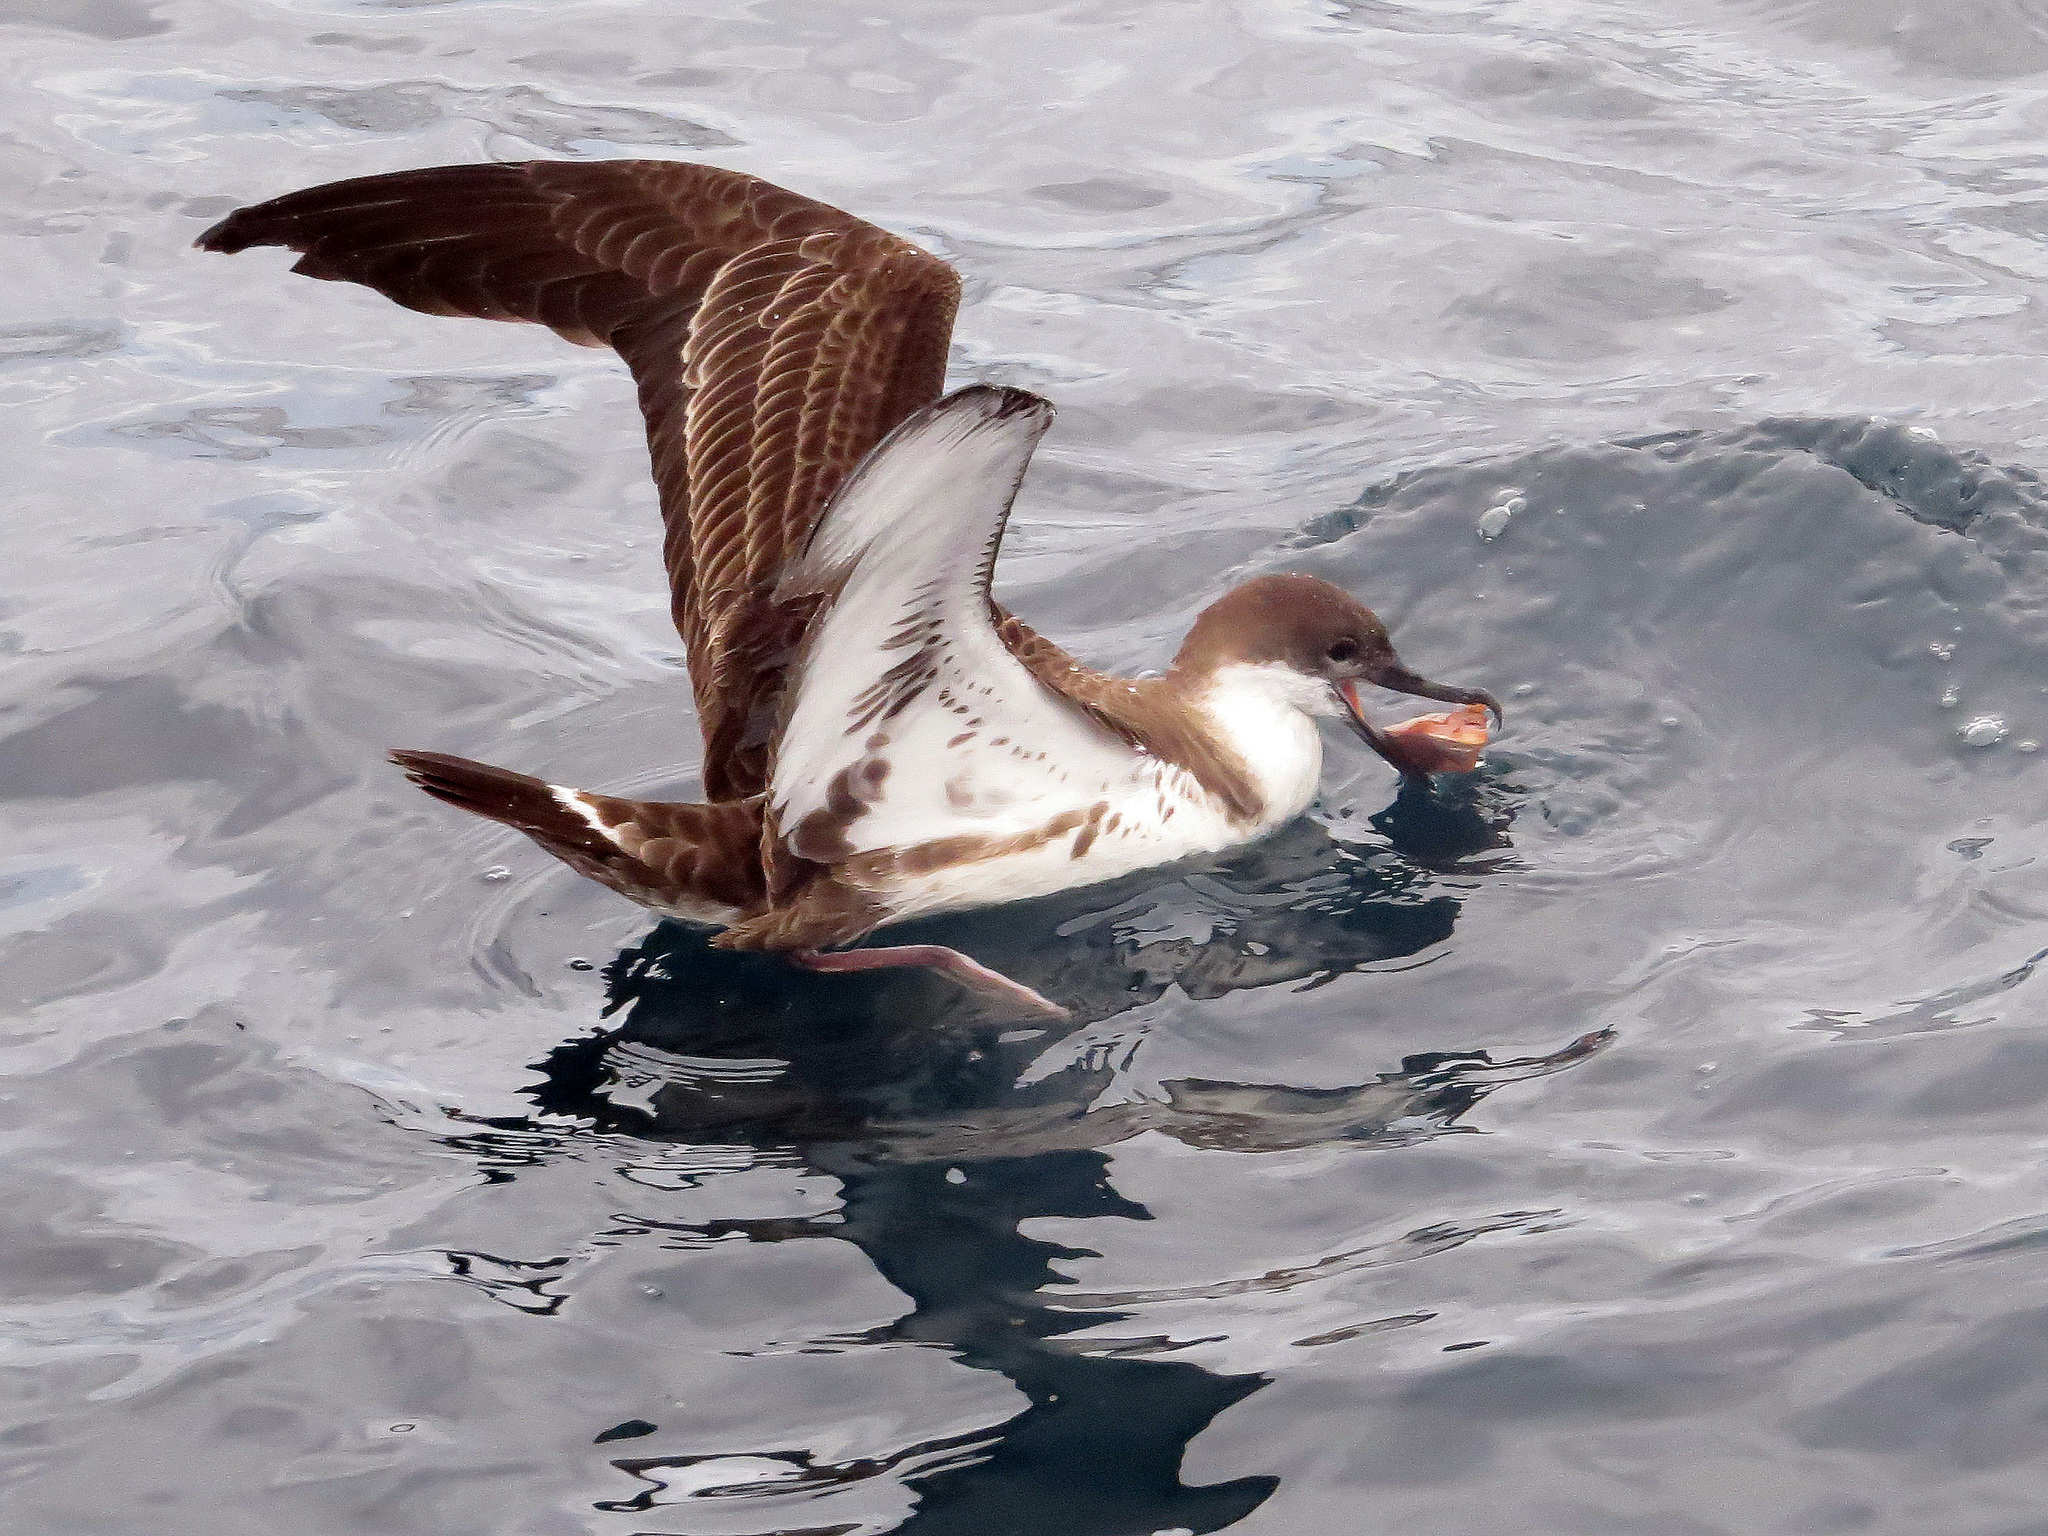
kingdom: Animalia
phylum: Chordata
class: Aves
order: Procellariiformes
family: Procellariidae
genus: Puffinus
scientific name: Puffinus gravis
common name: Great shearwater
